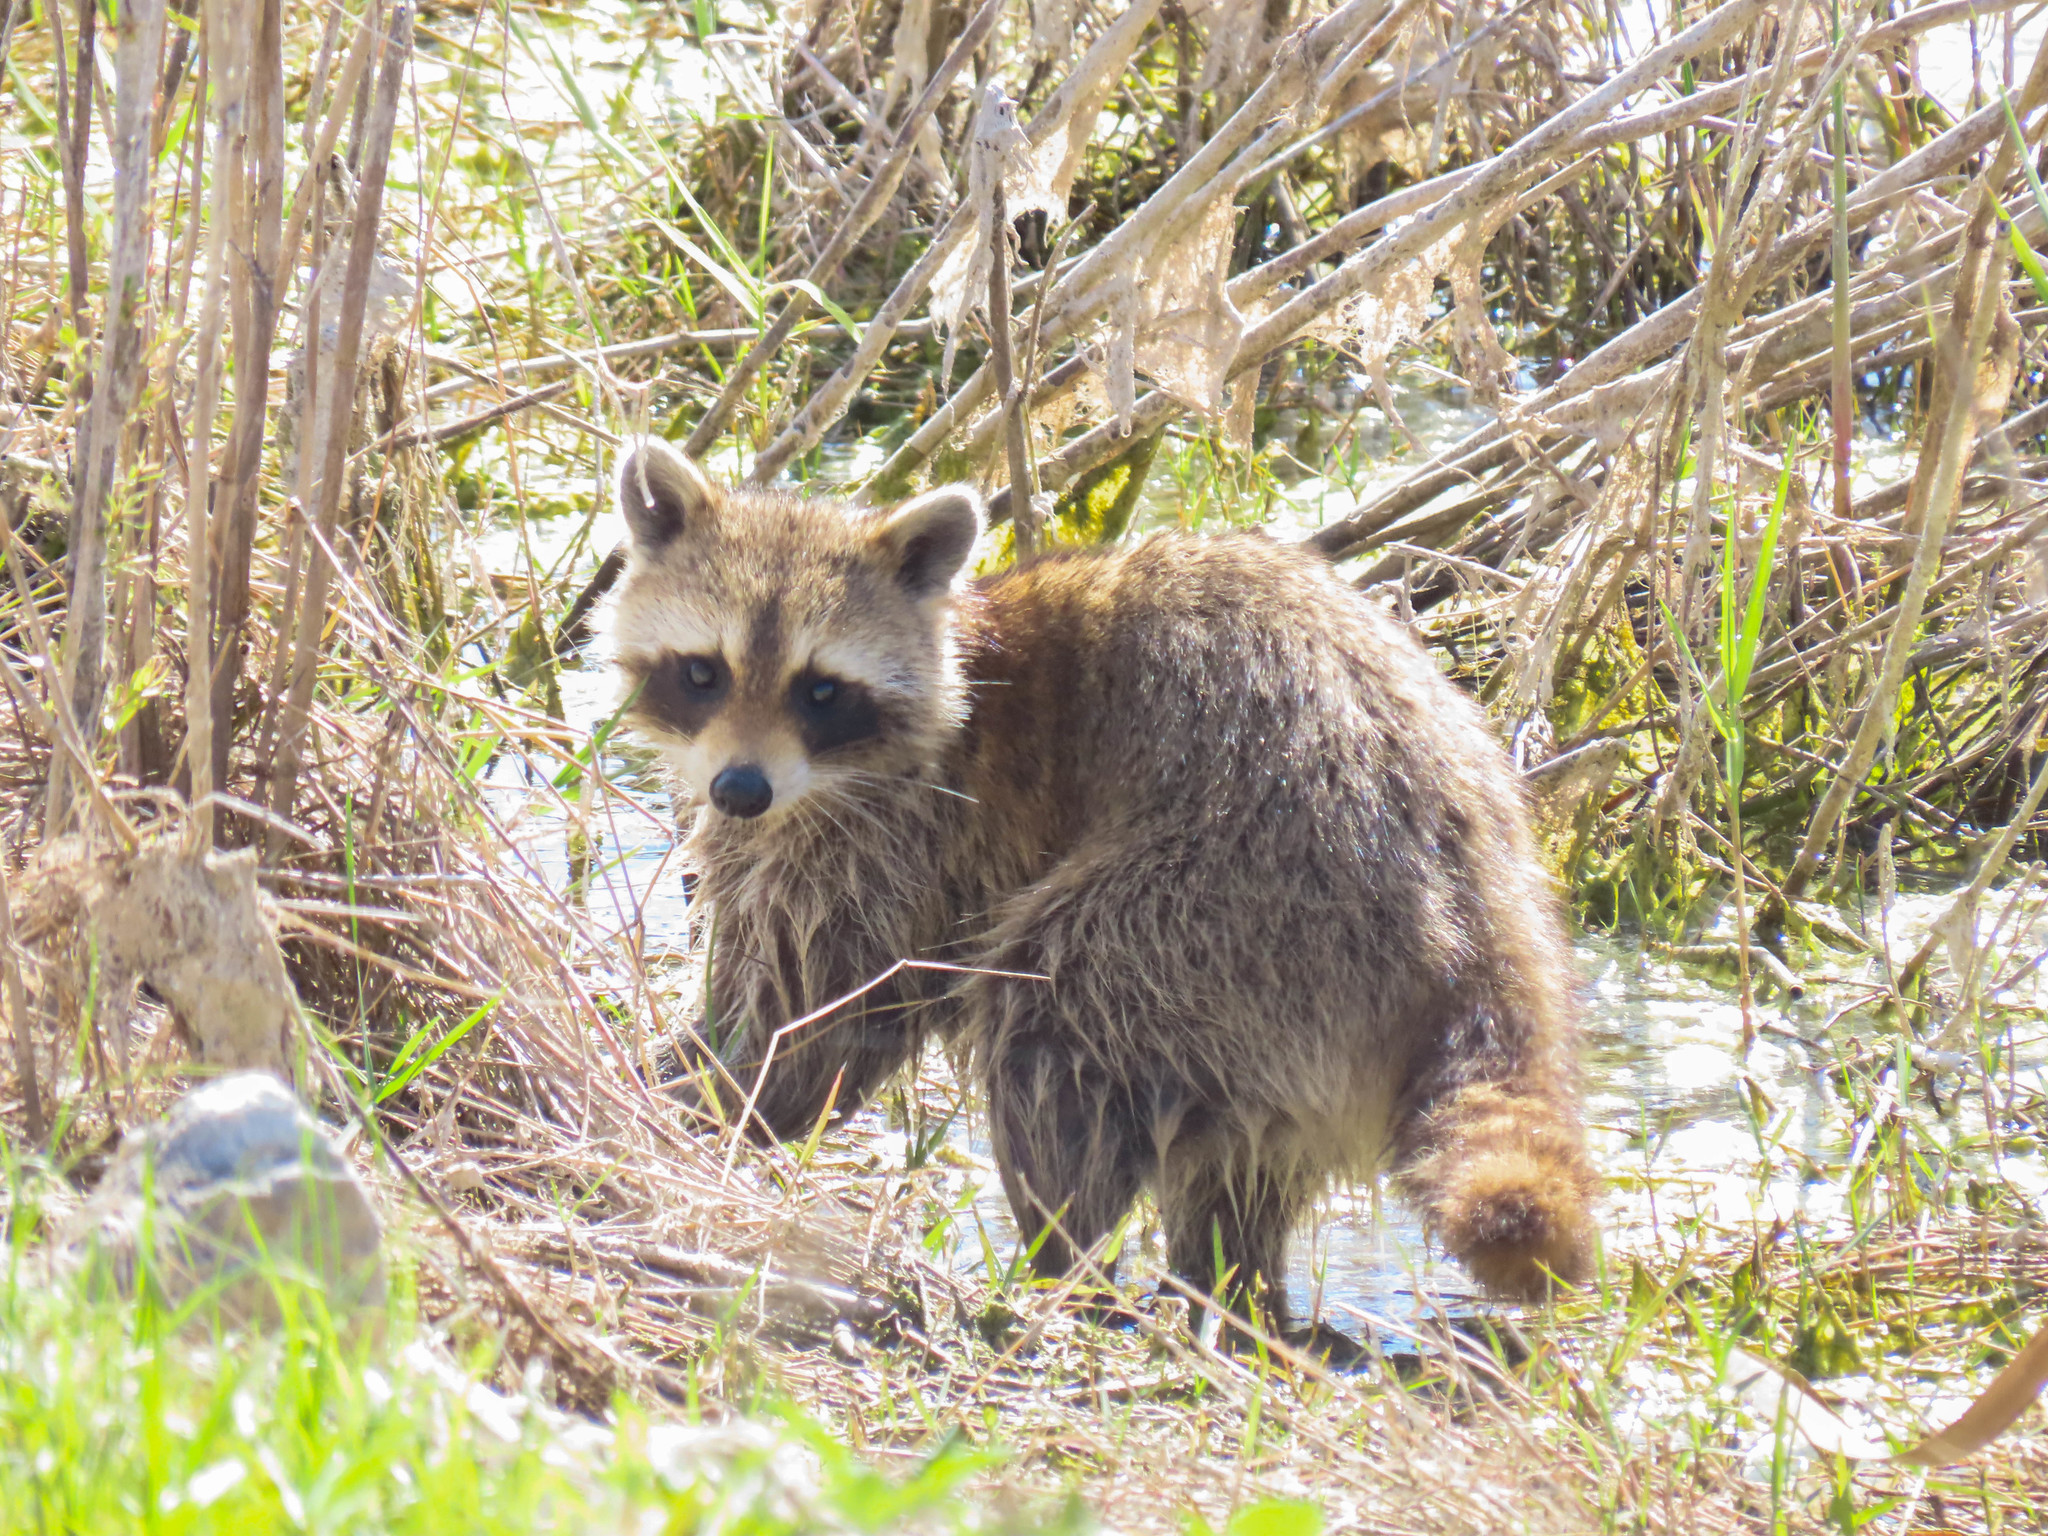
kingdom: Animalia
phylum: Chordata
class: Mammalia
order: Carnivora
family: Procyonidae
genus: Procyon
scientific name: Procyon lotor
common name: Raccoon
